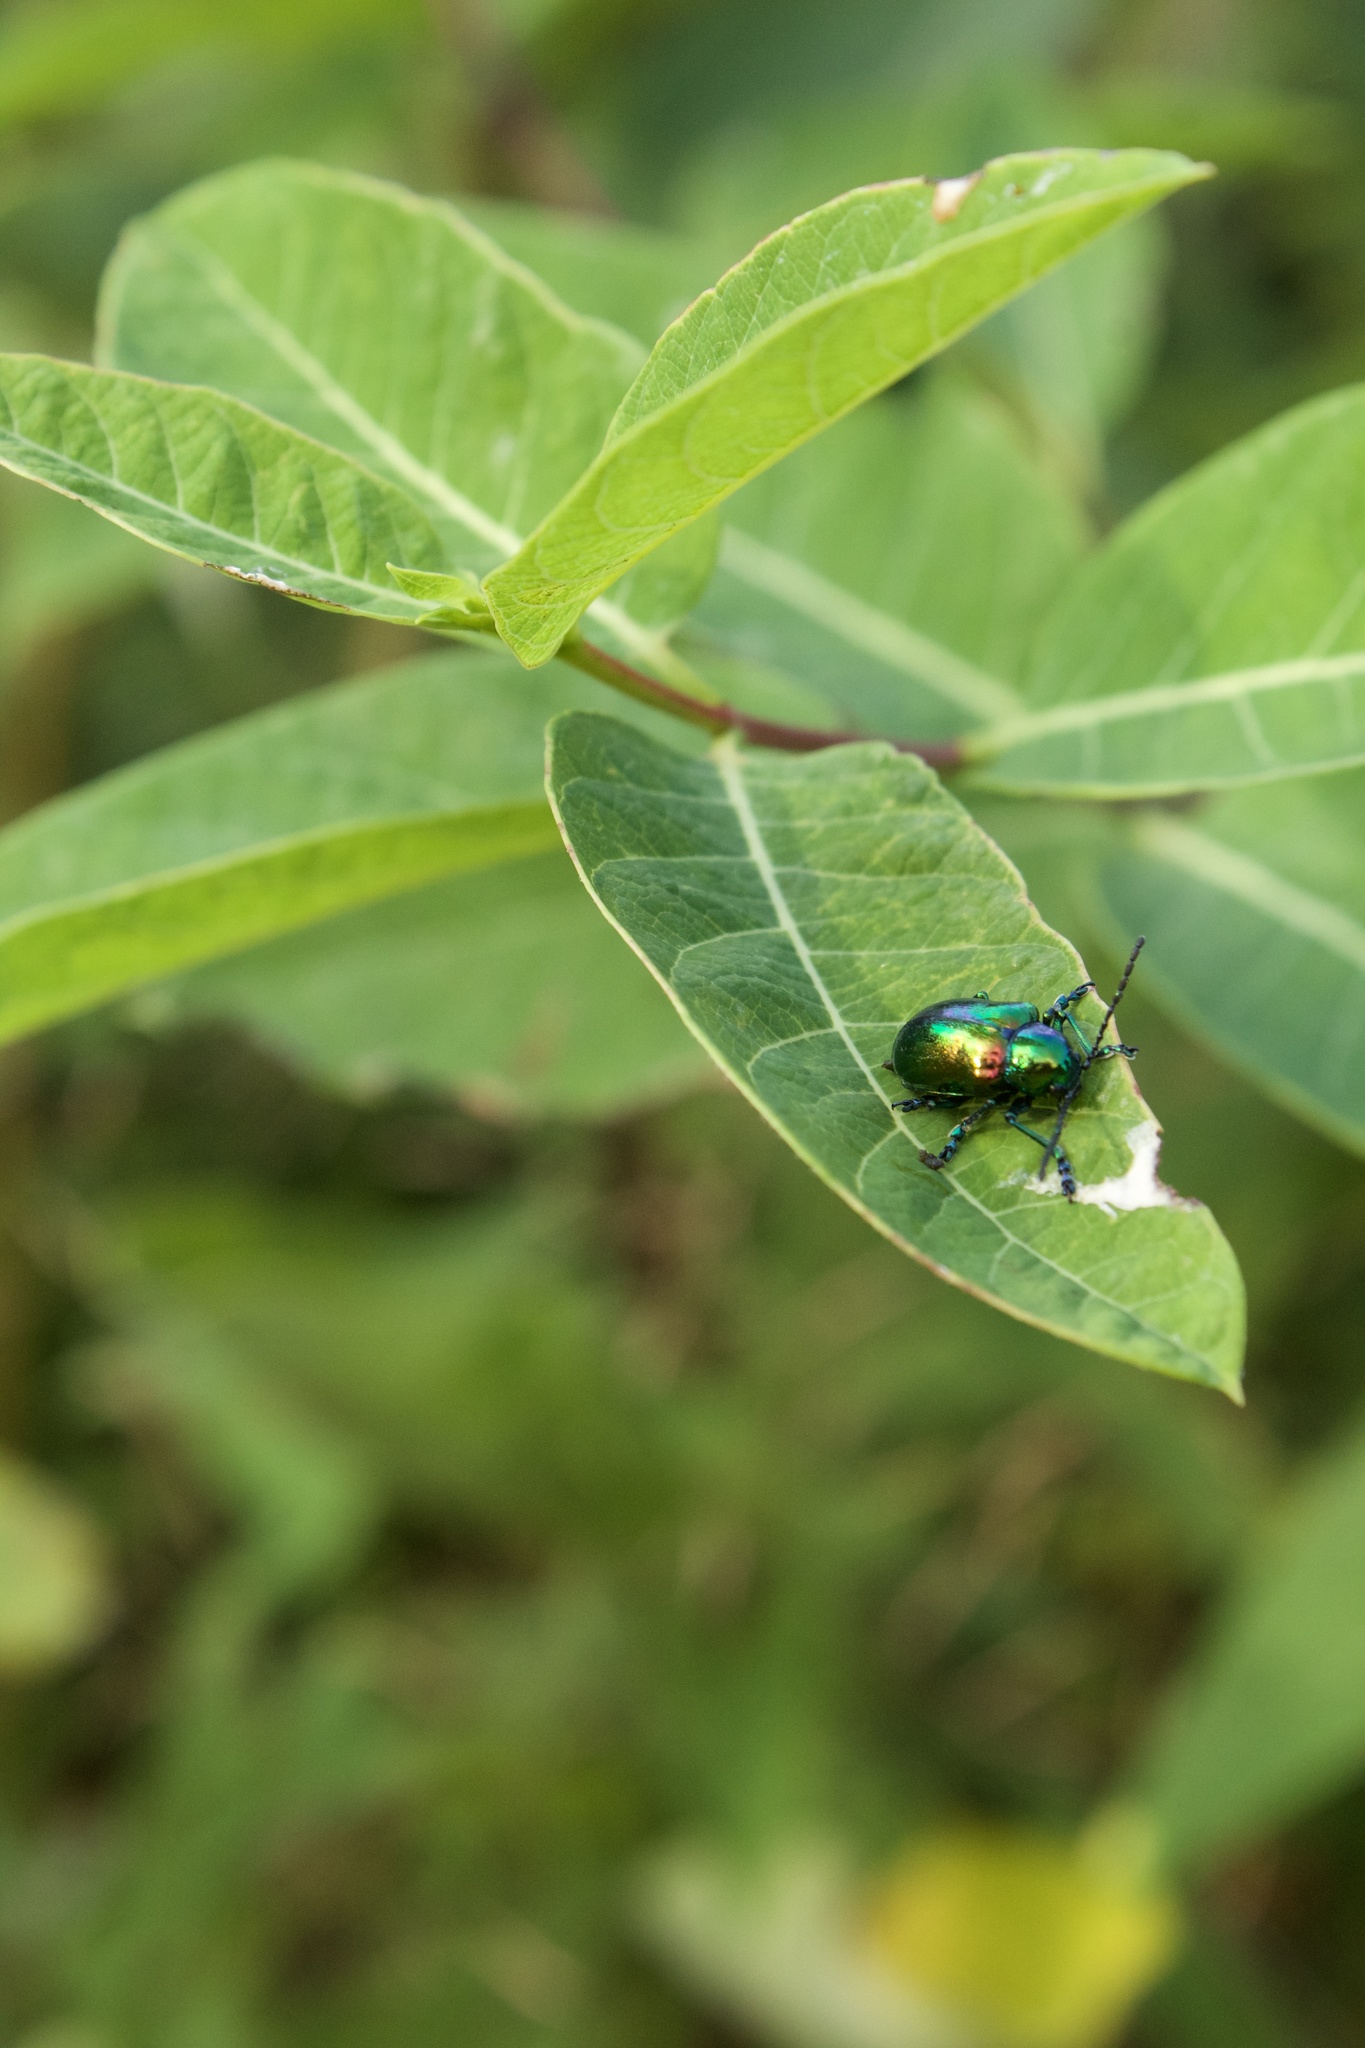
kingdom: Animalia
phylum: Arthropoda
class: Insecta
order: Coleoptera
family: Chrysomelidae
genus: Chrysochus
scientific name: Chrysochus auratus
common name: Dogbane leaf beetle
